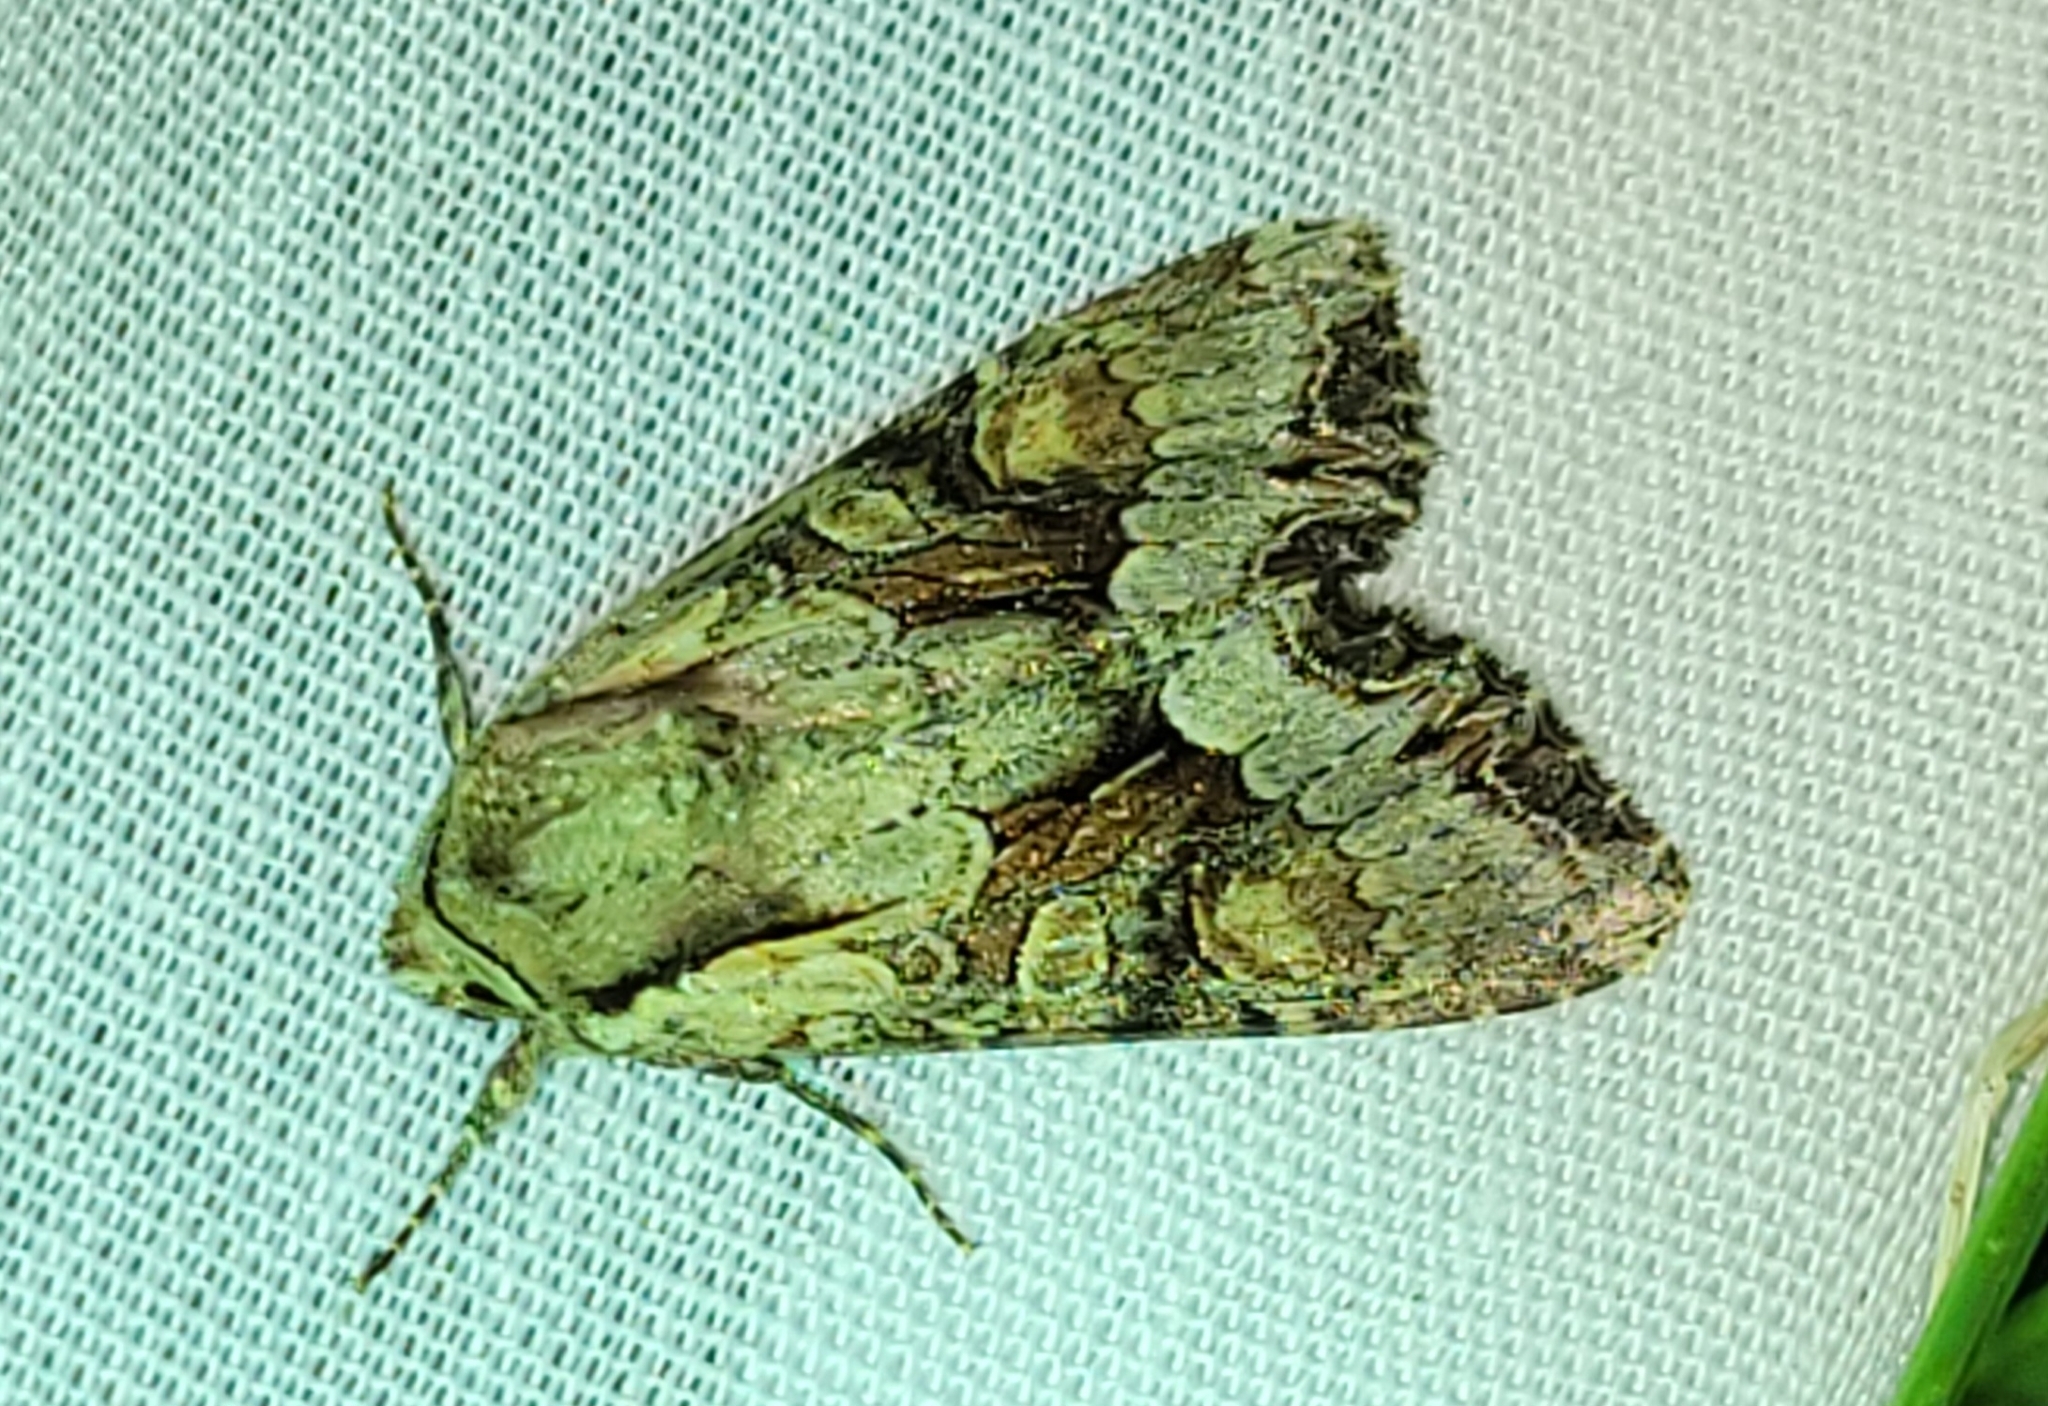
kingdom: Animalia
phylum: Arthropoda
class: Insecta
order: Lepidoptera
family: Noctuidae
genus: Lacanobia
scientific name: Lacanobia w-latinum
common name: Light brocade
